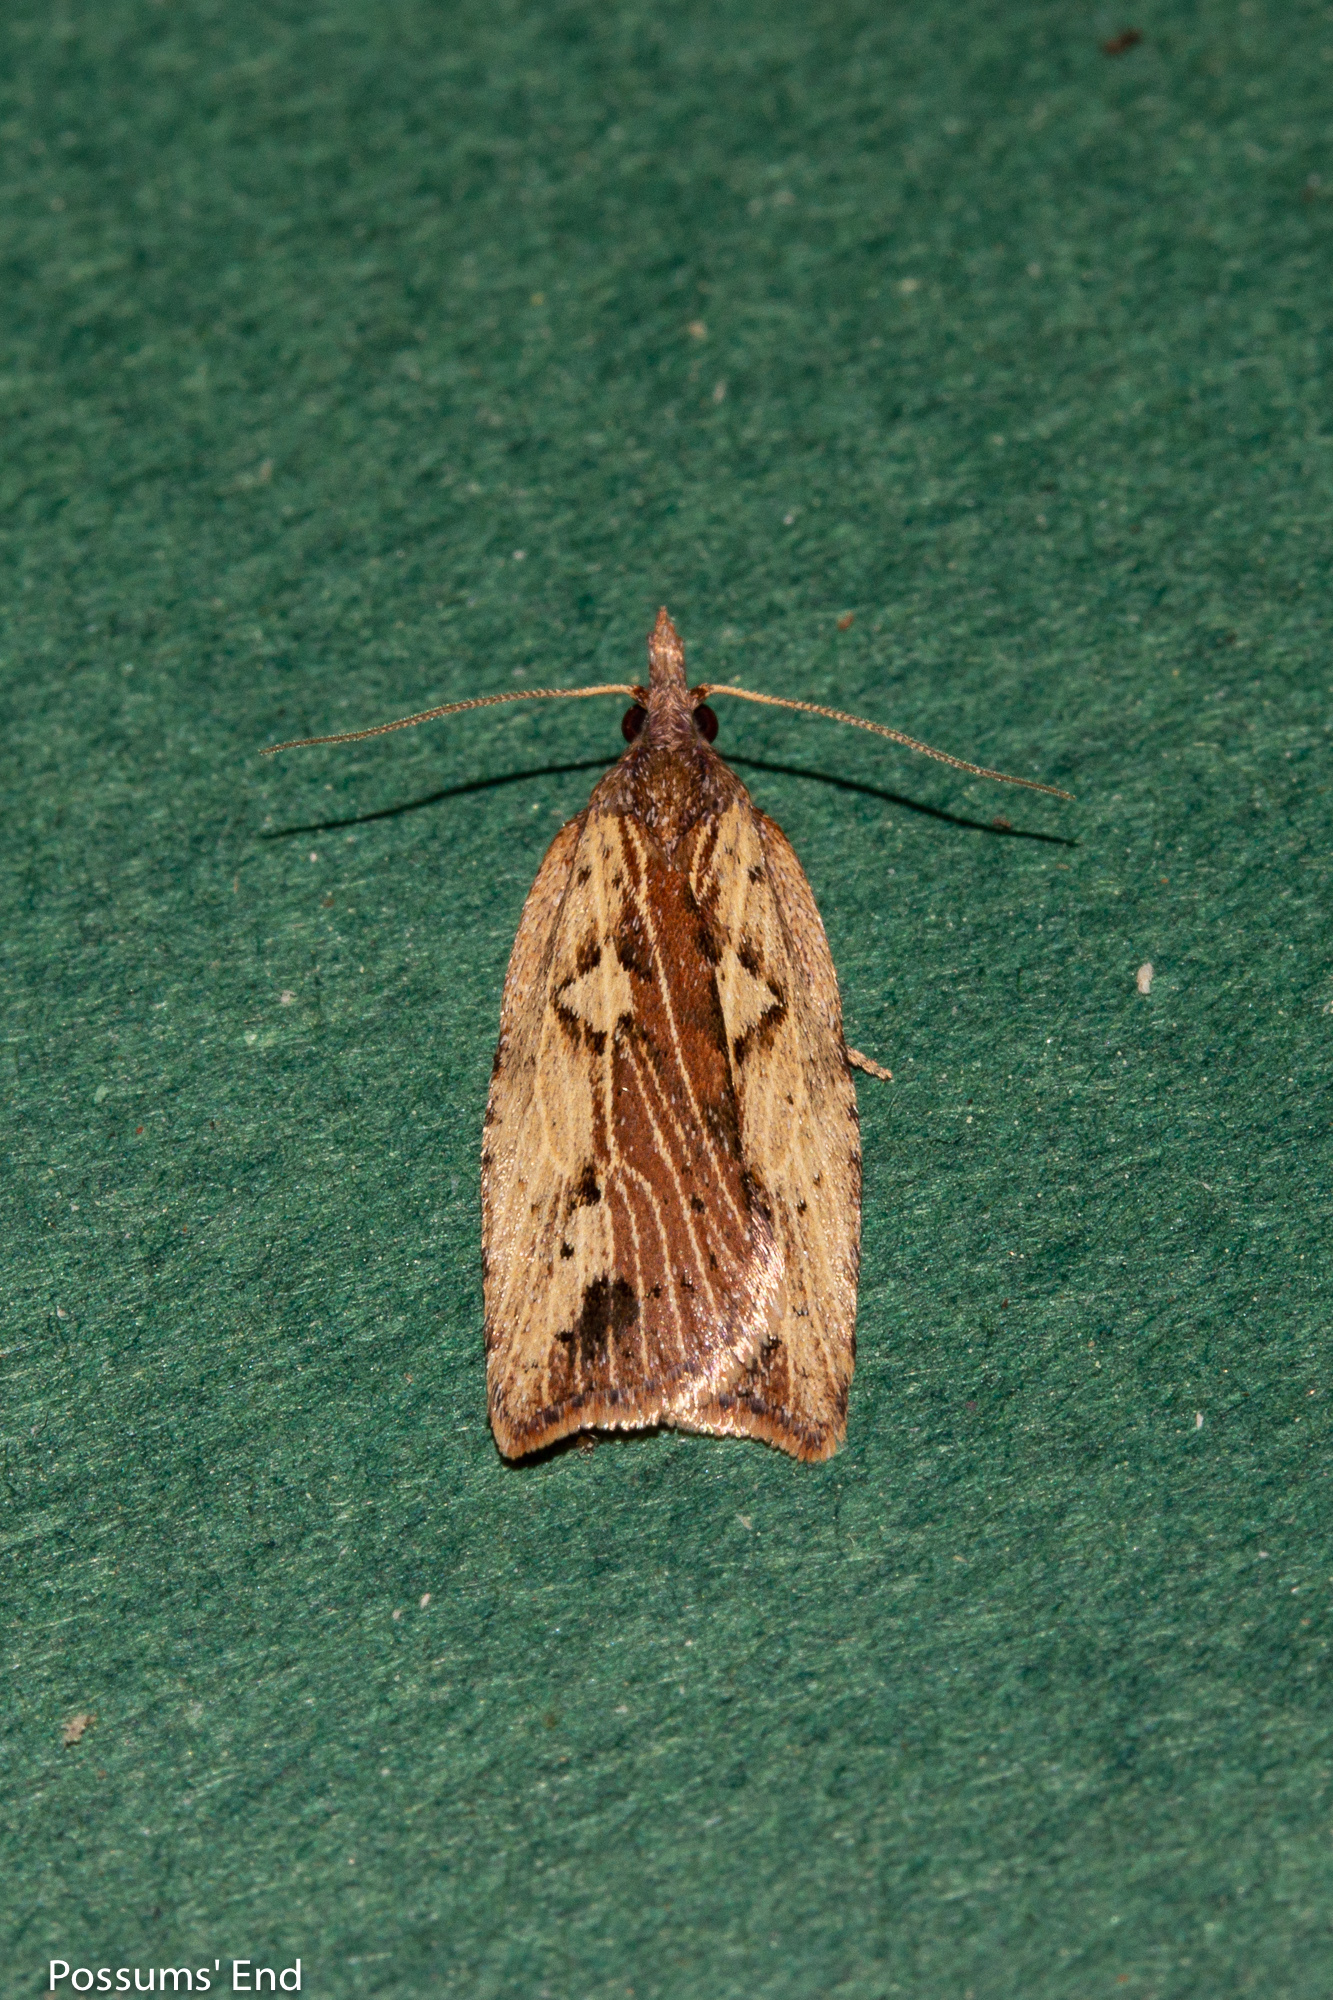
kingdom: Animalia
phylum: Arthropoda
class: Insecta
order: Lepidoptera
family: Tortricidae
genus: Planotortrix
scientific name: Planotortrix notophaea
